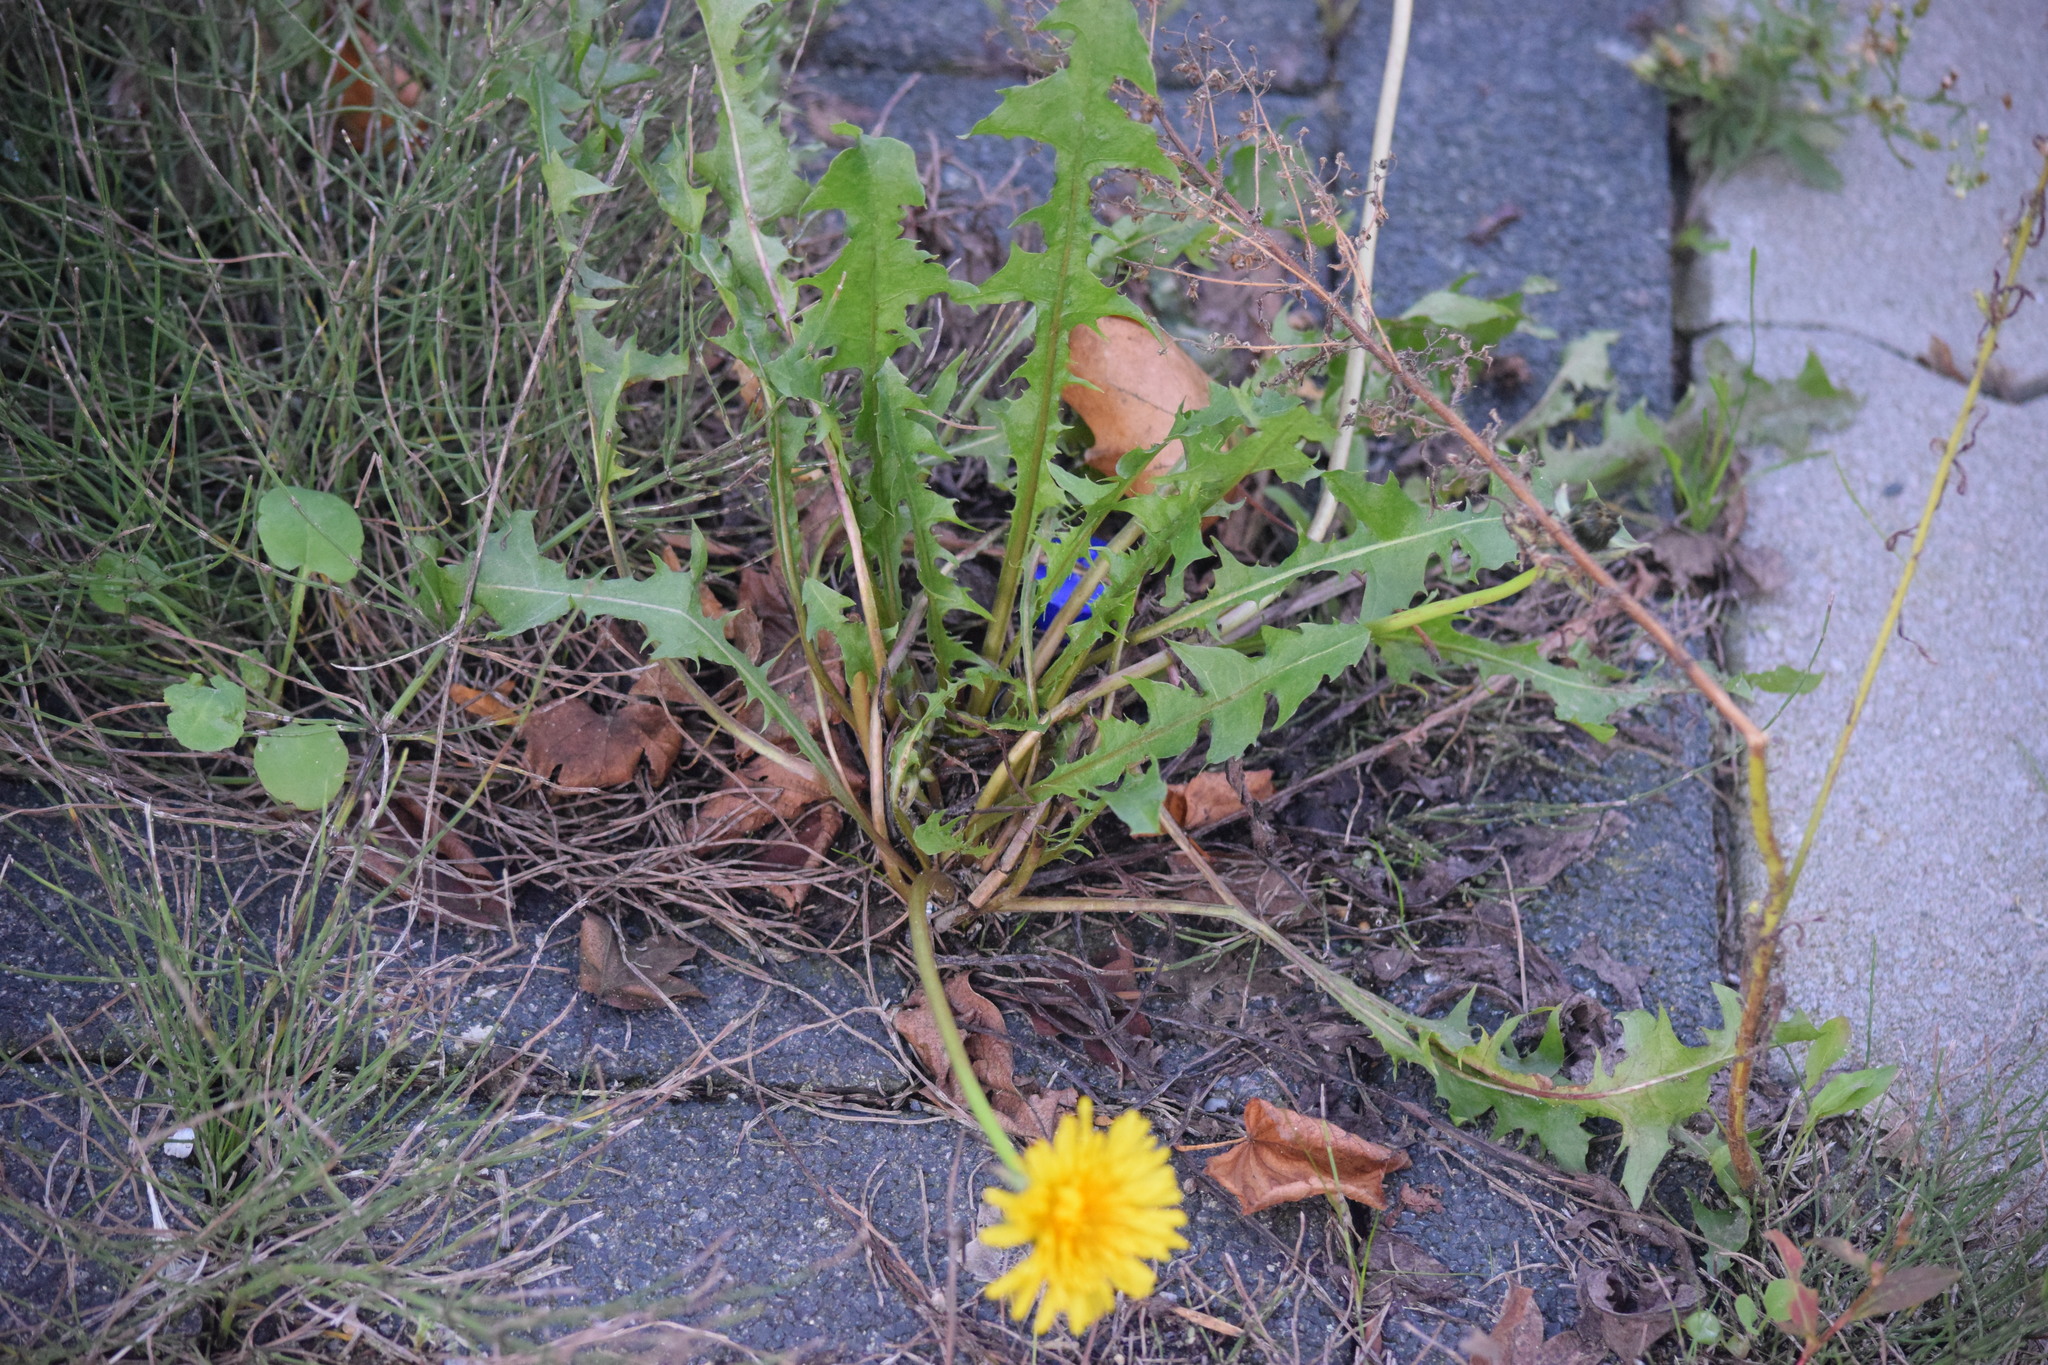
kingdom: Plantae
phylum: Tracheophyta
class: Magnoliopsida
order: Asterales
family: Asteraceae
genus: Taraxacum
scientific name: Taraxacum officinale
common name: Common dandelion
